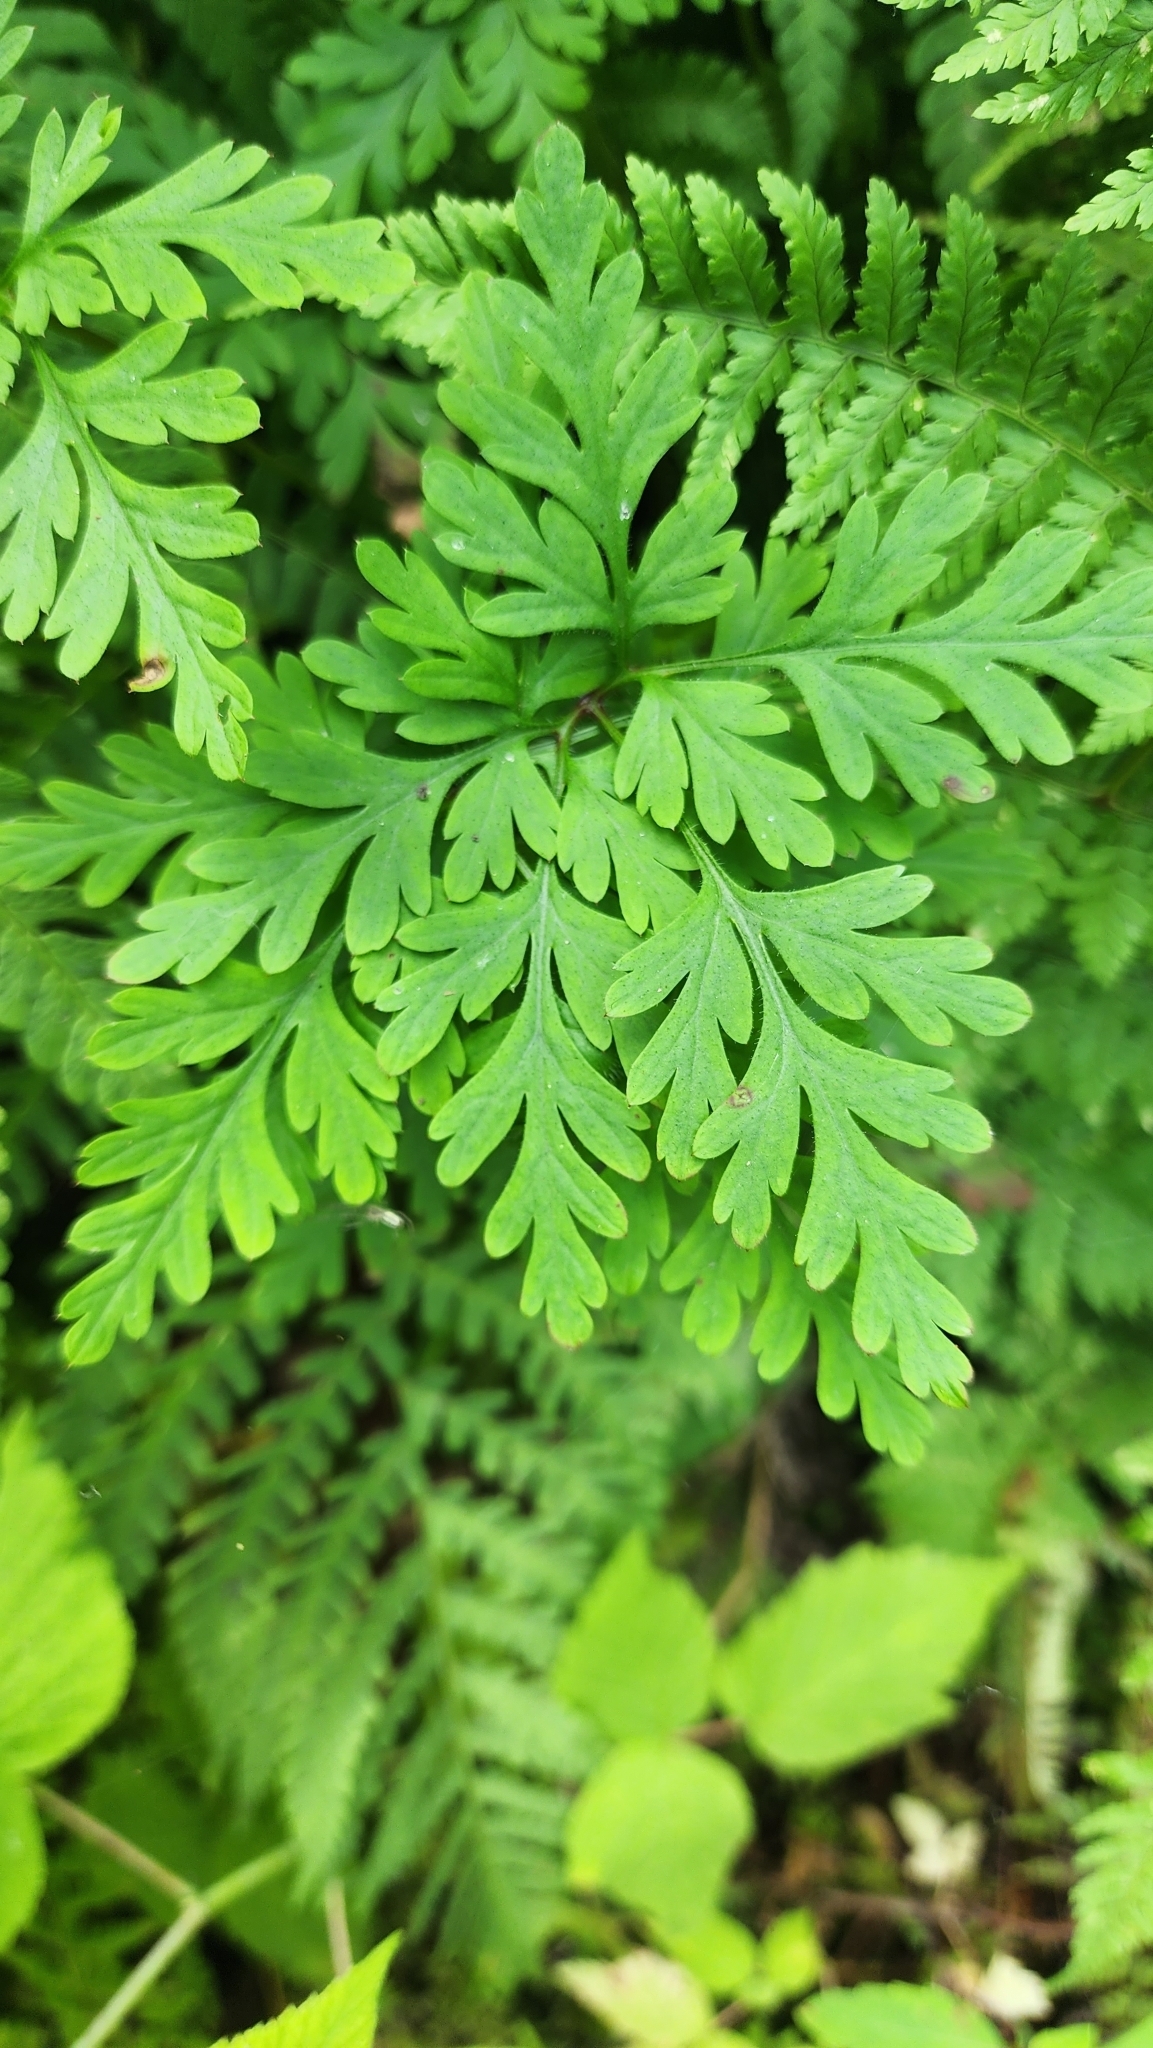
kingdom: Plantae
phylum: Tracheophyta
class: Magnoliopsida
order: Geraniales
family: Geraniaceae
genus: Geranium
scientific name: Geranium robertianum
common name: Herb-robert
